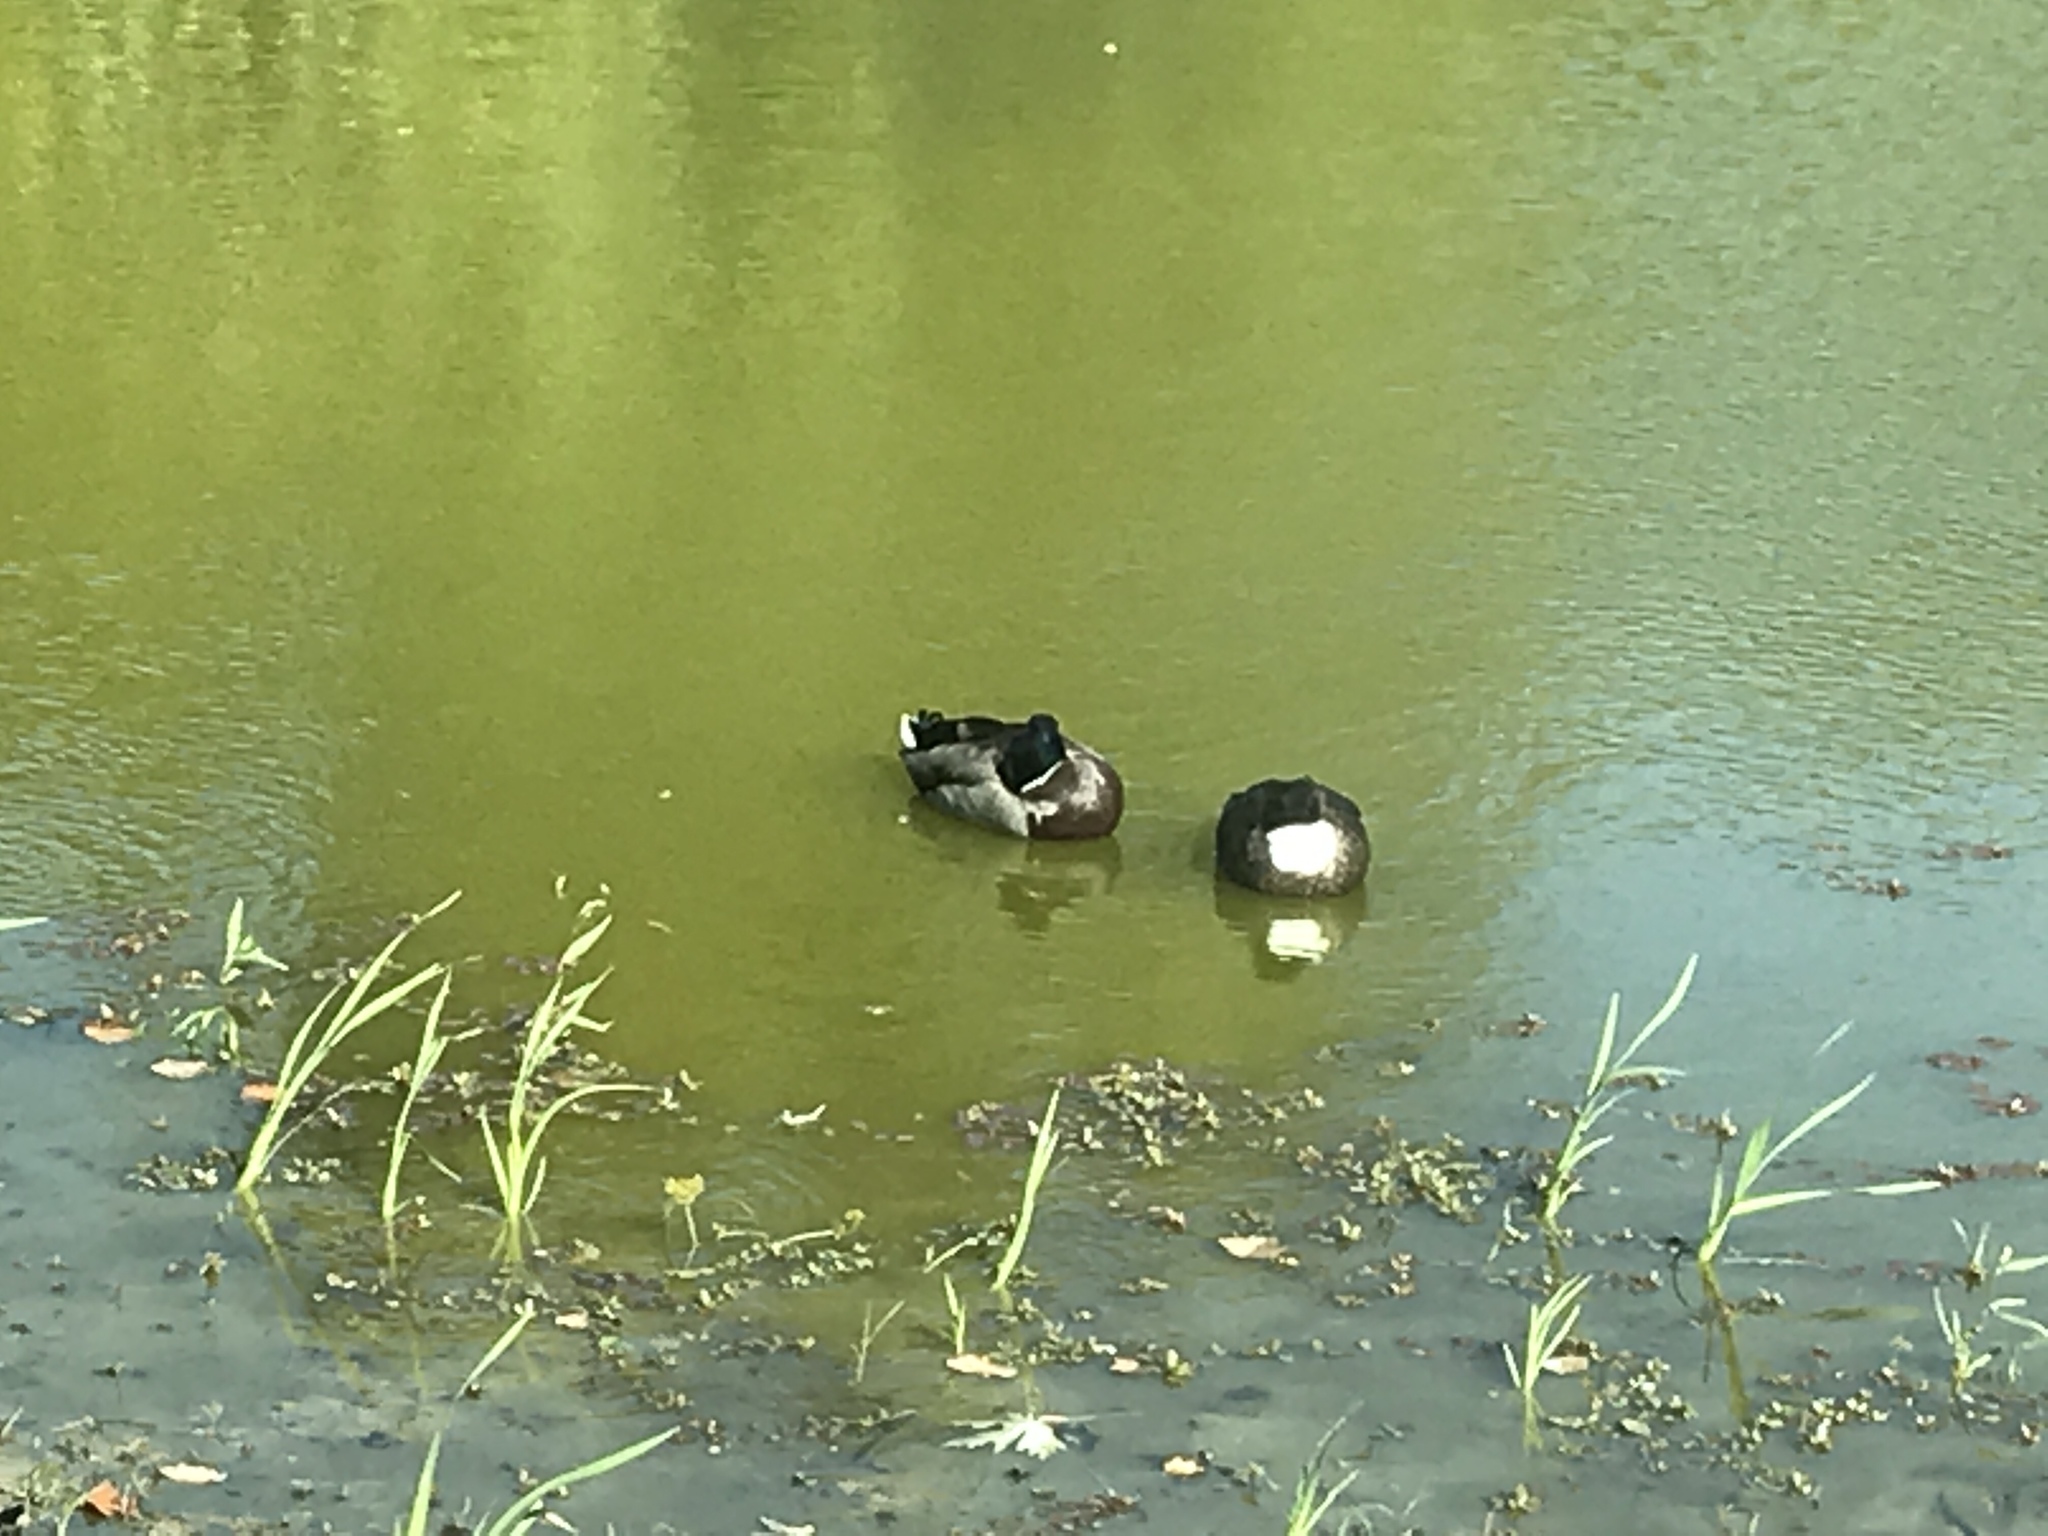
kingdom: Animalia
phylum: Chordata
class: Aves
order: Anseriformes
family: Anatidae
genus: Anas
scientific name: Anas platyrhynchos
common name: Mallard
